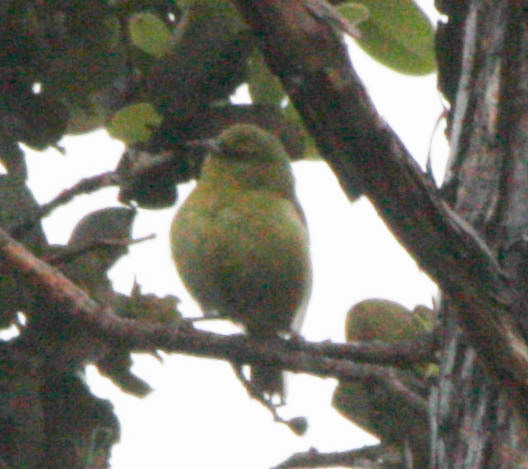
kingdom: Animalia
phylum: Chordata
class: Aves
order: Passeriformes
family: Fringillidae
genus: Chlorodrepanis
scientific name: Chlorodrepanis virens
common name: Hawaii amakihi
